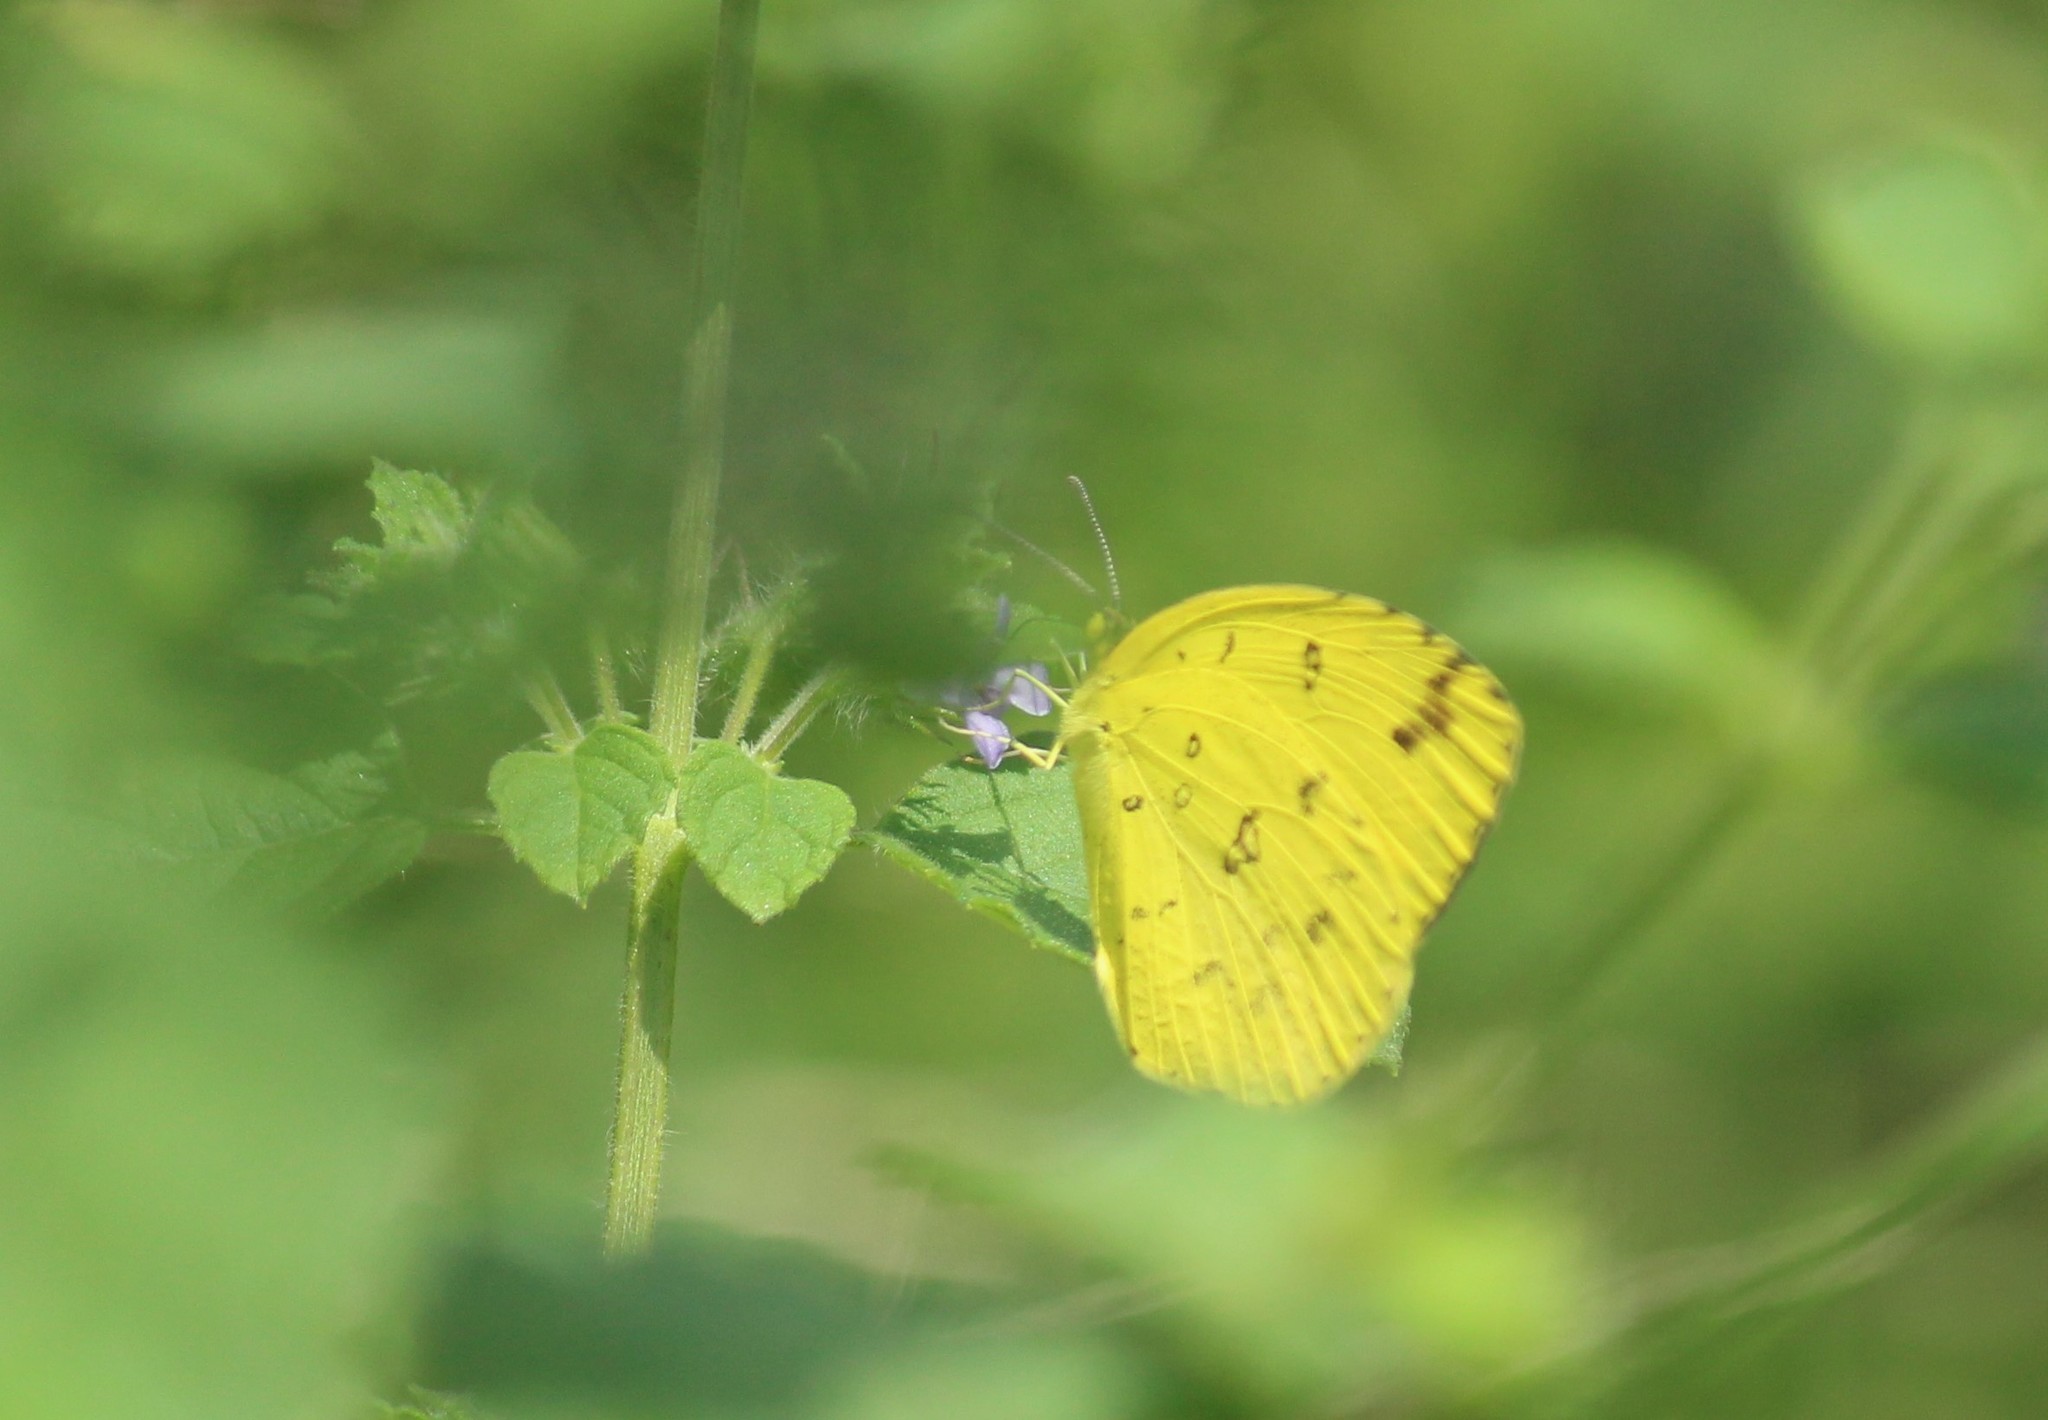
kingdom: Animalia
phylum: Arthropoda
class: Insecta
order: Lepidoptera
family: Pieridae
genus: Eurema
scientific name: Eurema blanda
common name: Three-spot grass yellow
